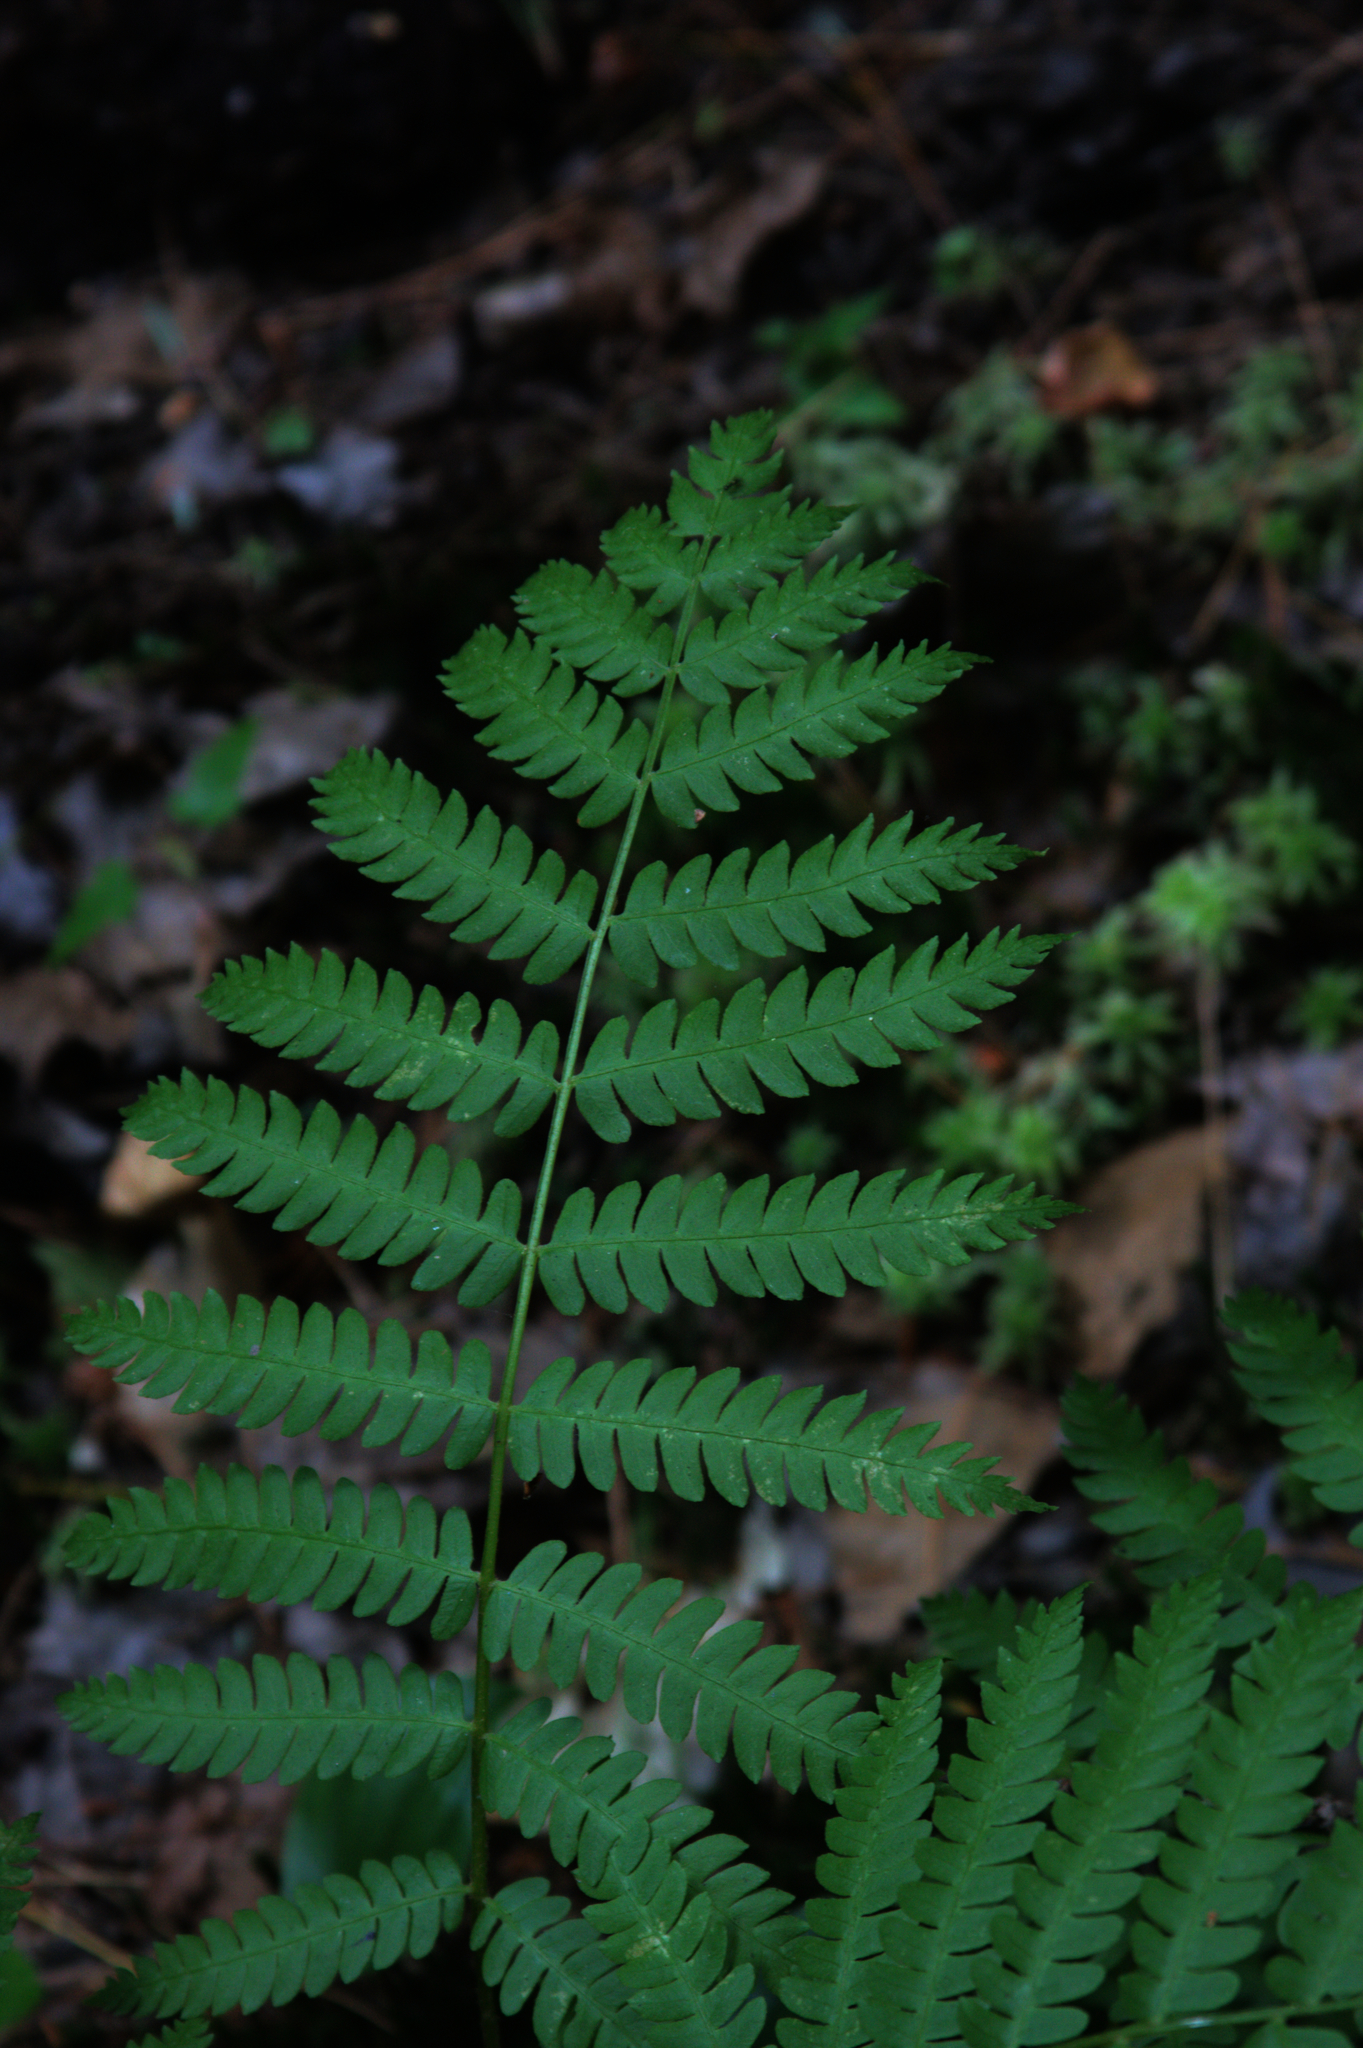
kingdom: Plantae
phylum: Tracheophyta
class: Polypodiopsida
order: Osmundales
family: Osmundaceae
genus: Osmundastrum
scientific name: Osmundastrum cinnamomeum
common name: Cinnamon fern
